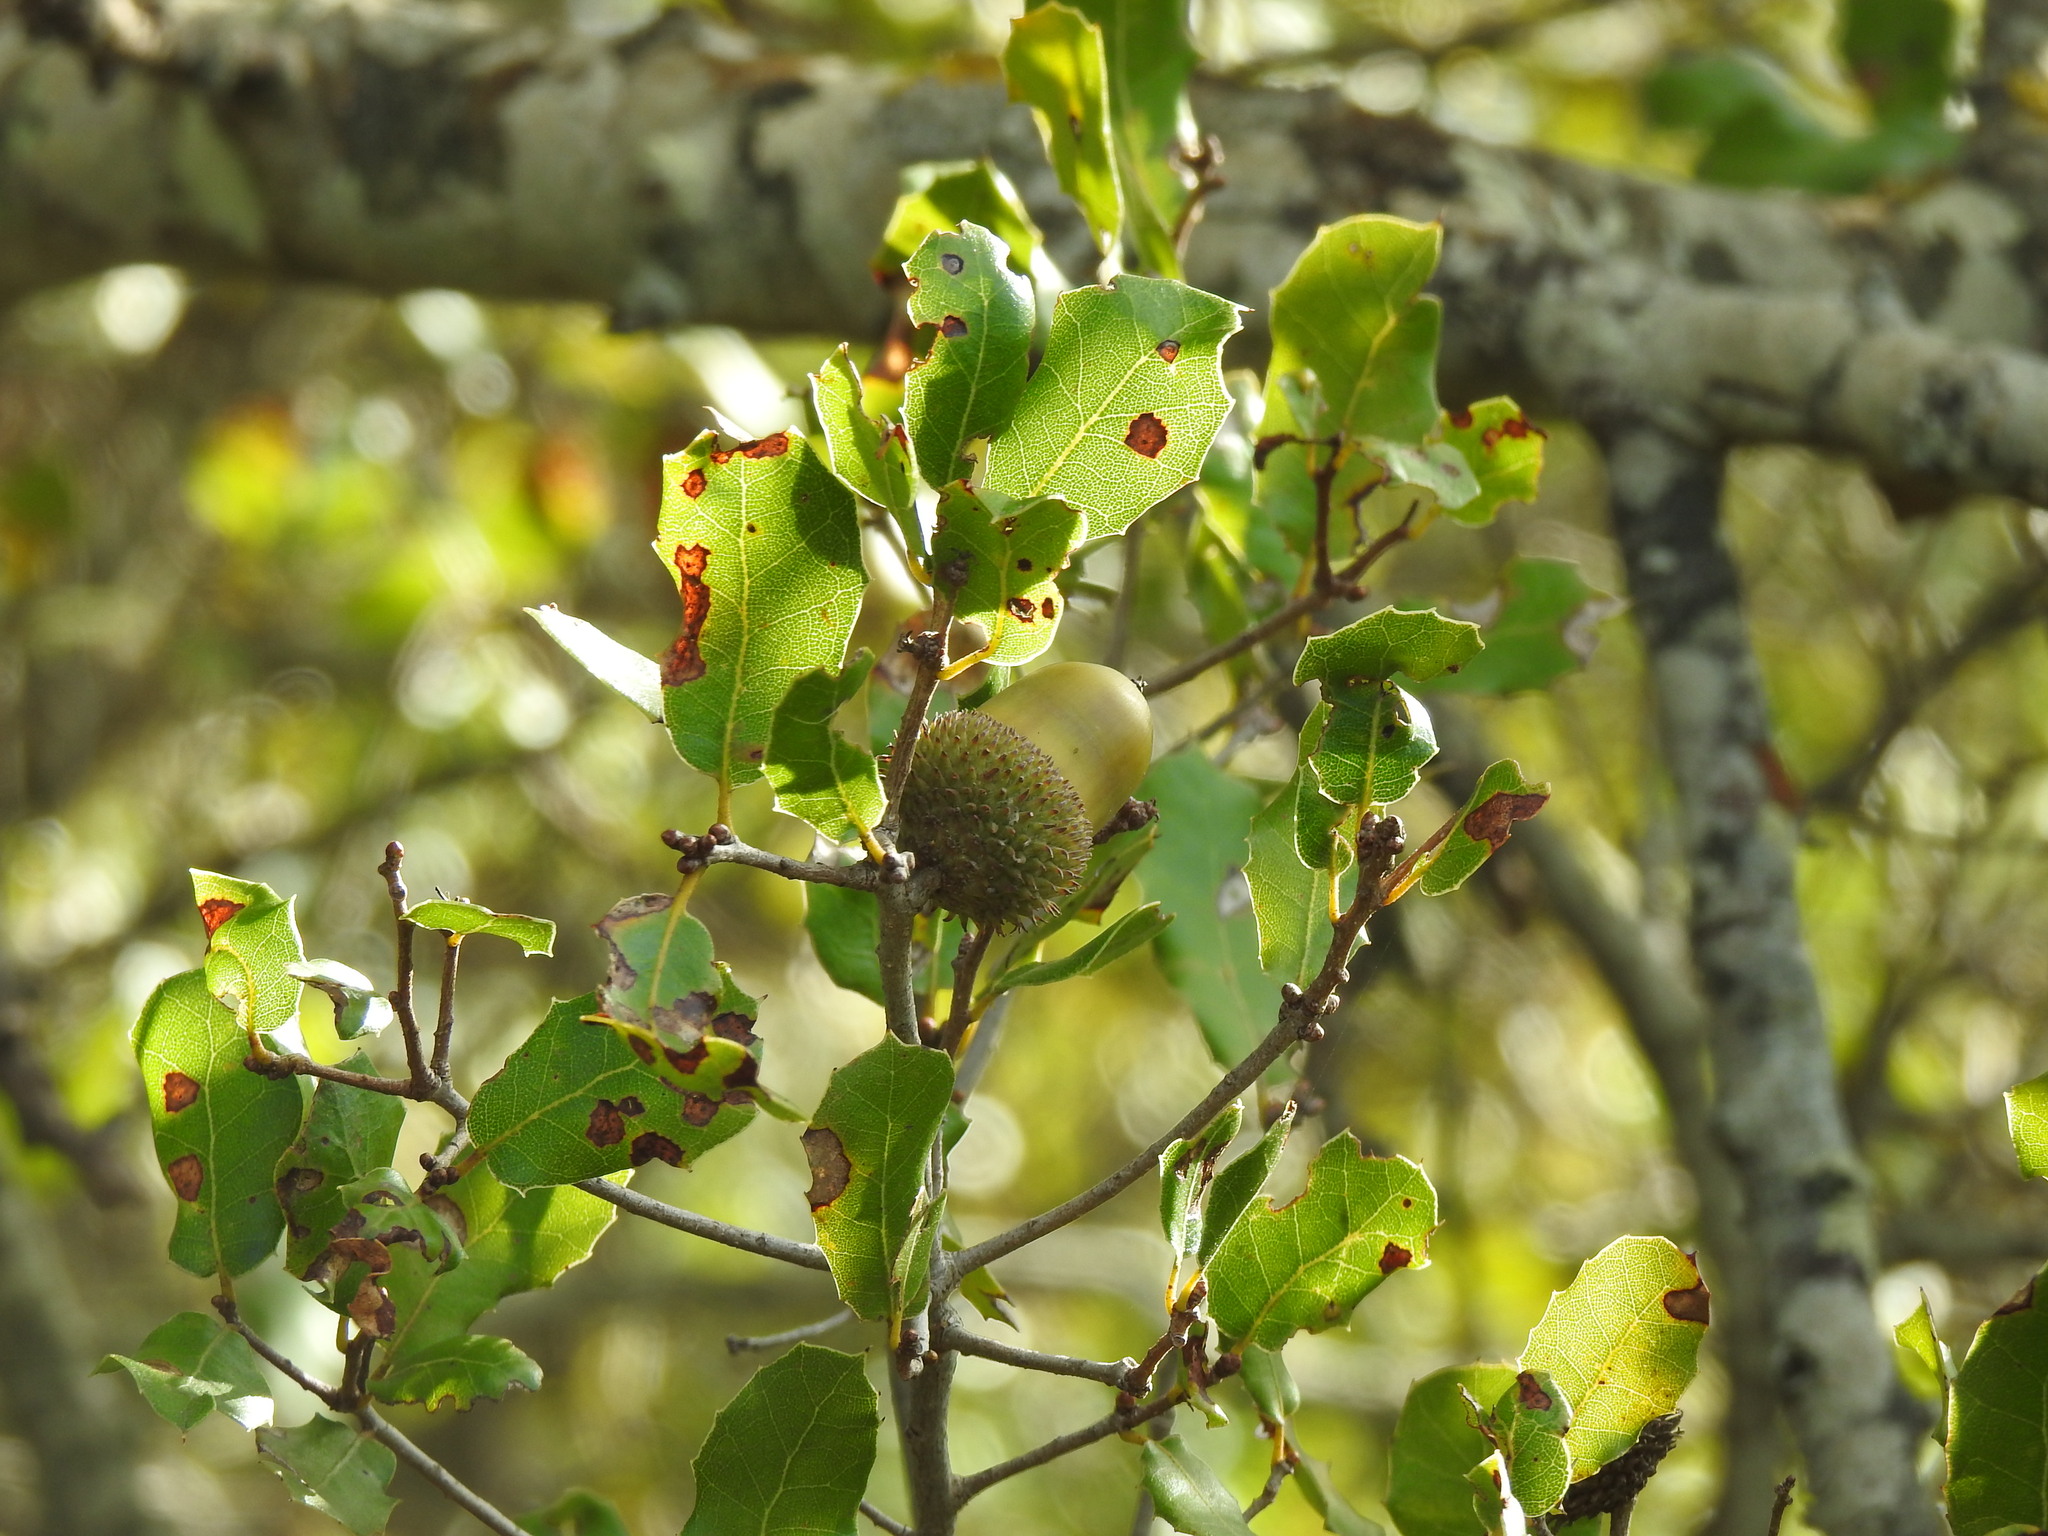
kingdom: Plantae
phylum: Tracheophyta
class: Magnoliopsida
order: Fagales
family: Fagaceae
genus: Quercus
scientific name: Quercus coccifera
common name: Kermes oak
